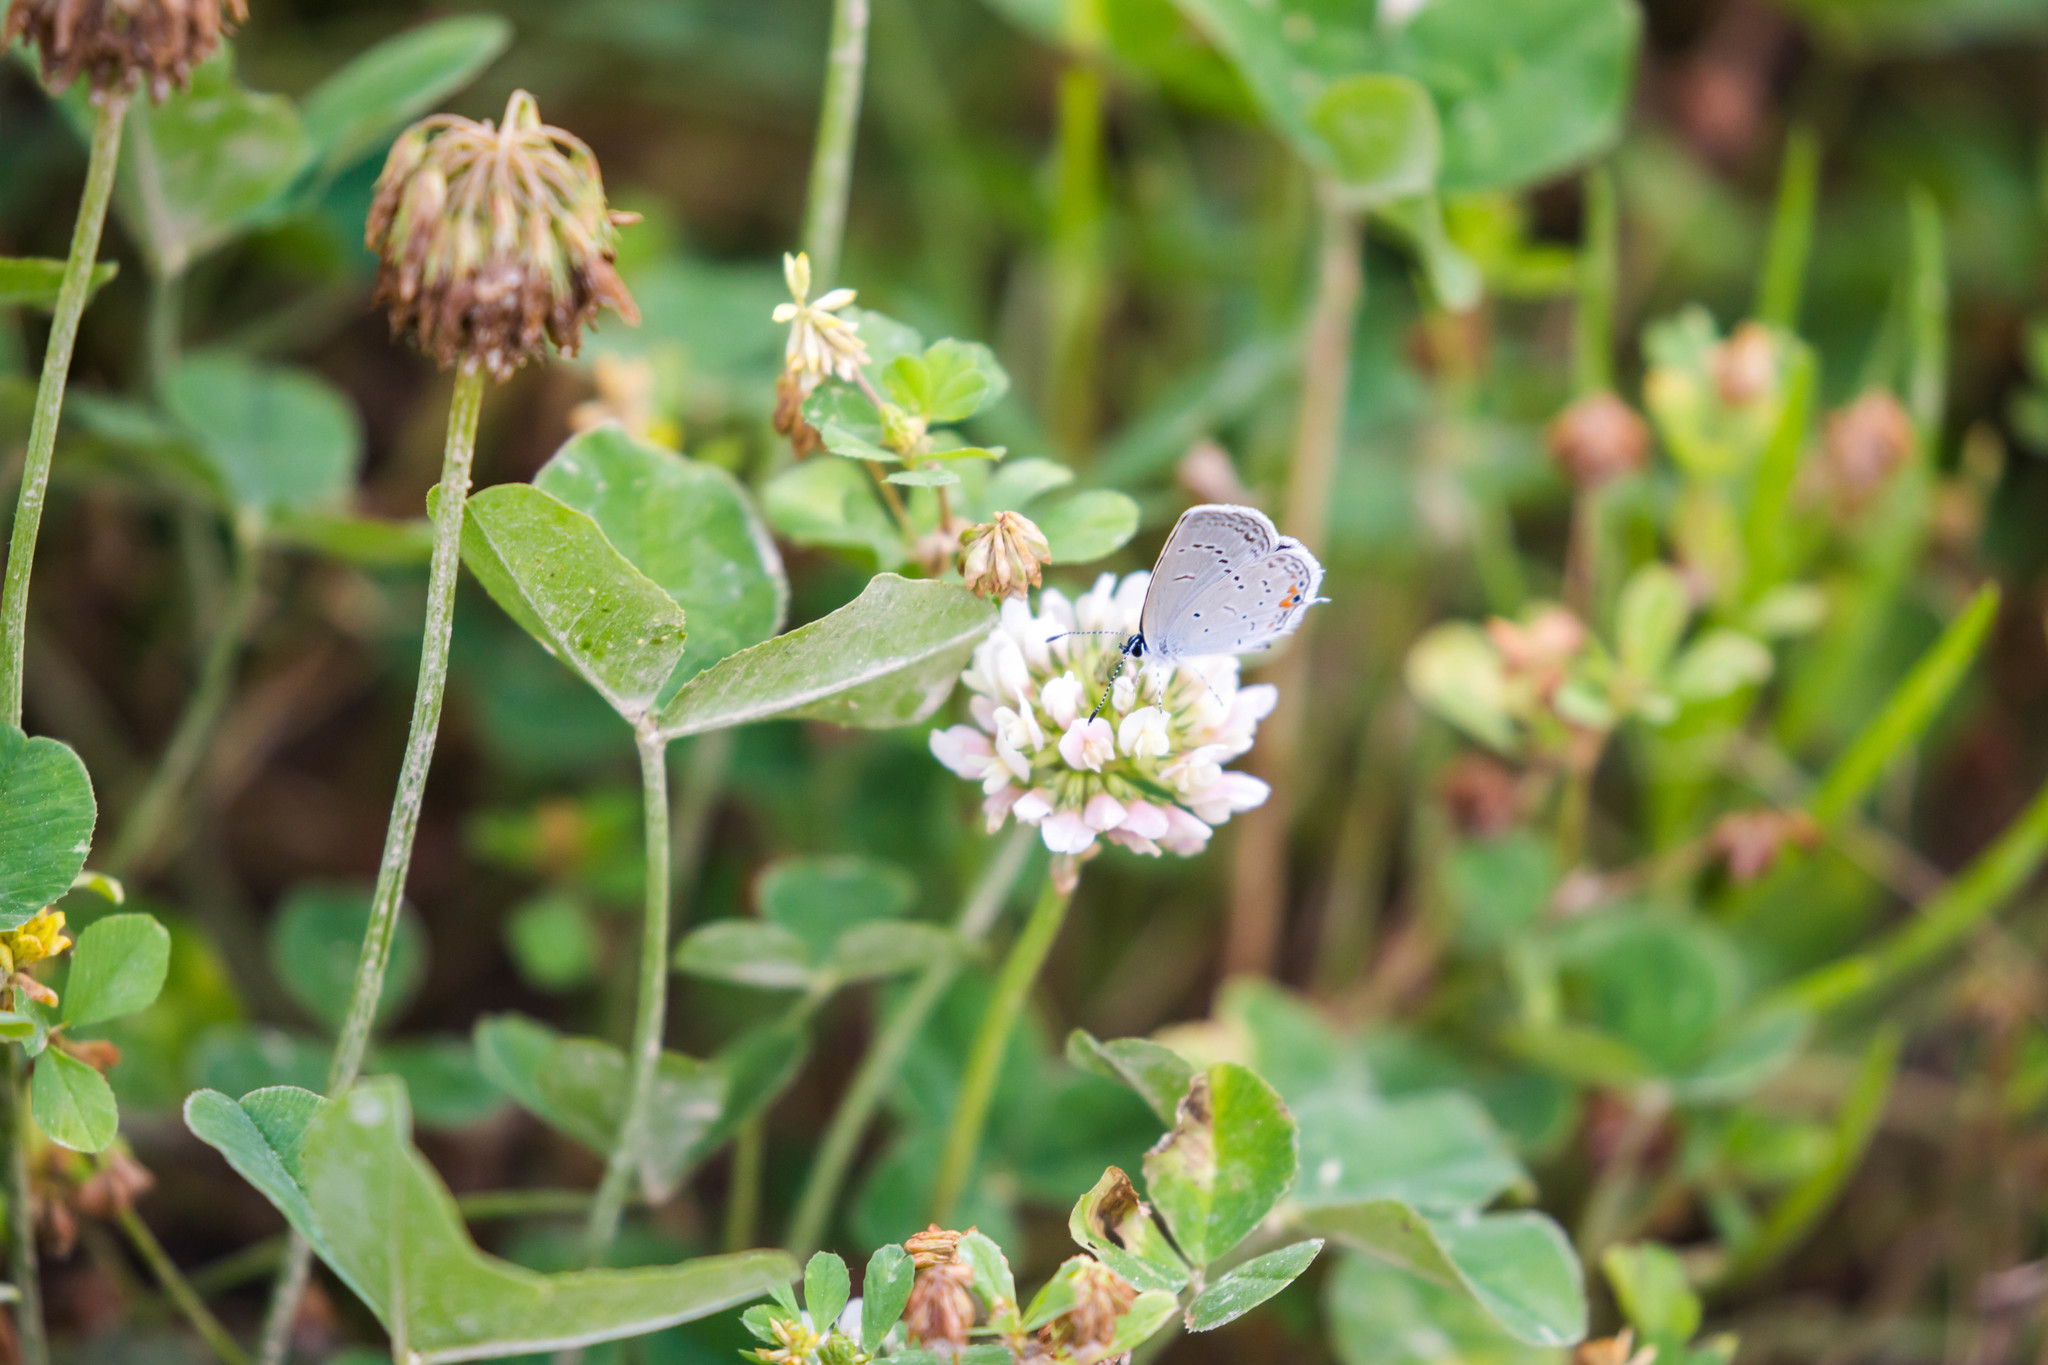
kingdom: Animalia
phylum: Arthropoda
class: Insecta
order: Lepidoptera
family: Lycaenidae
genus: Elkalyce
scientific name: Elkalyce comyntas
